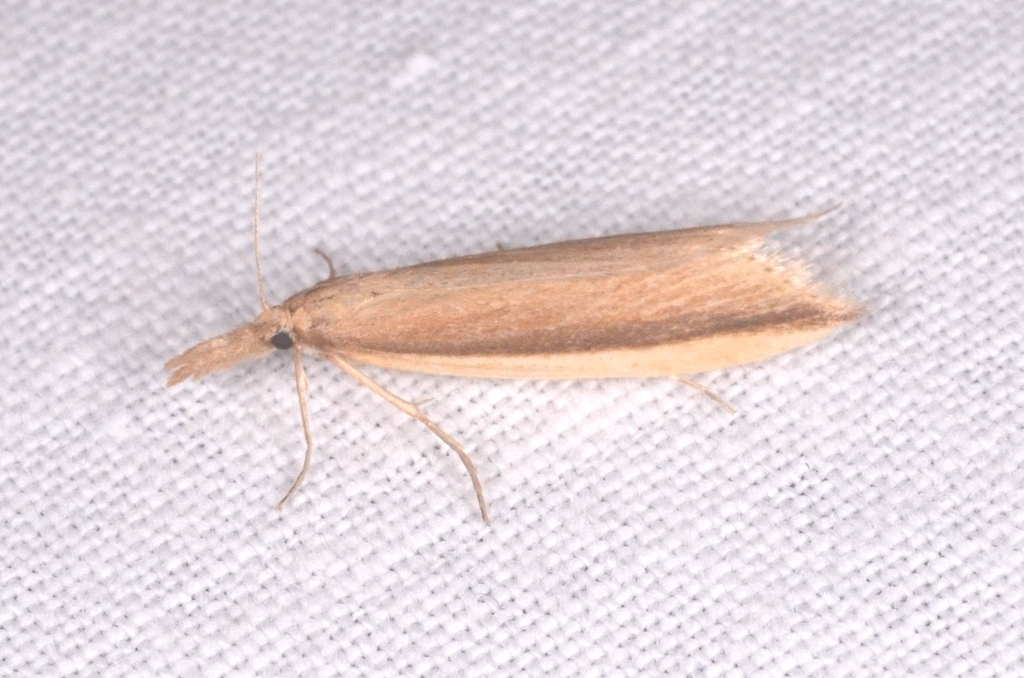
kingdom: Animalia
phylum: Arthropoda
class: Insecta
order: Lepidoptera
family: Crambidae
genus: Donacaula
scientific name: Donacaula mucronella
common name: Scarce water-veneer
